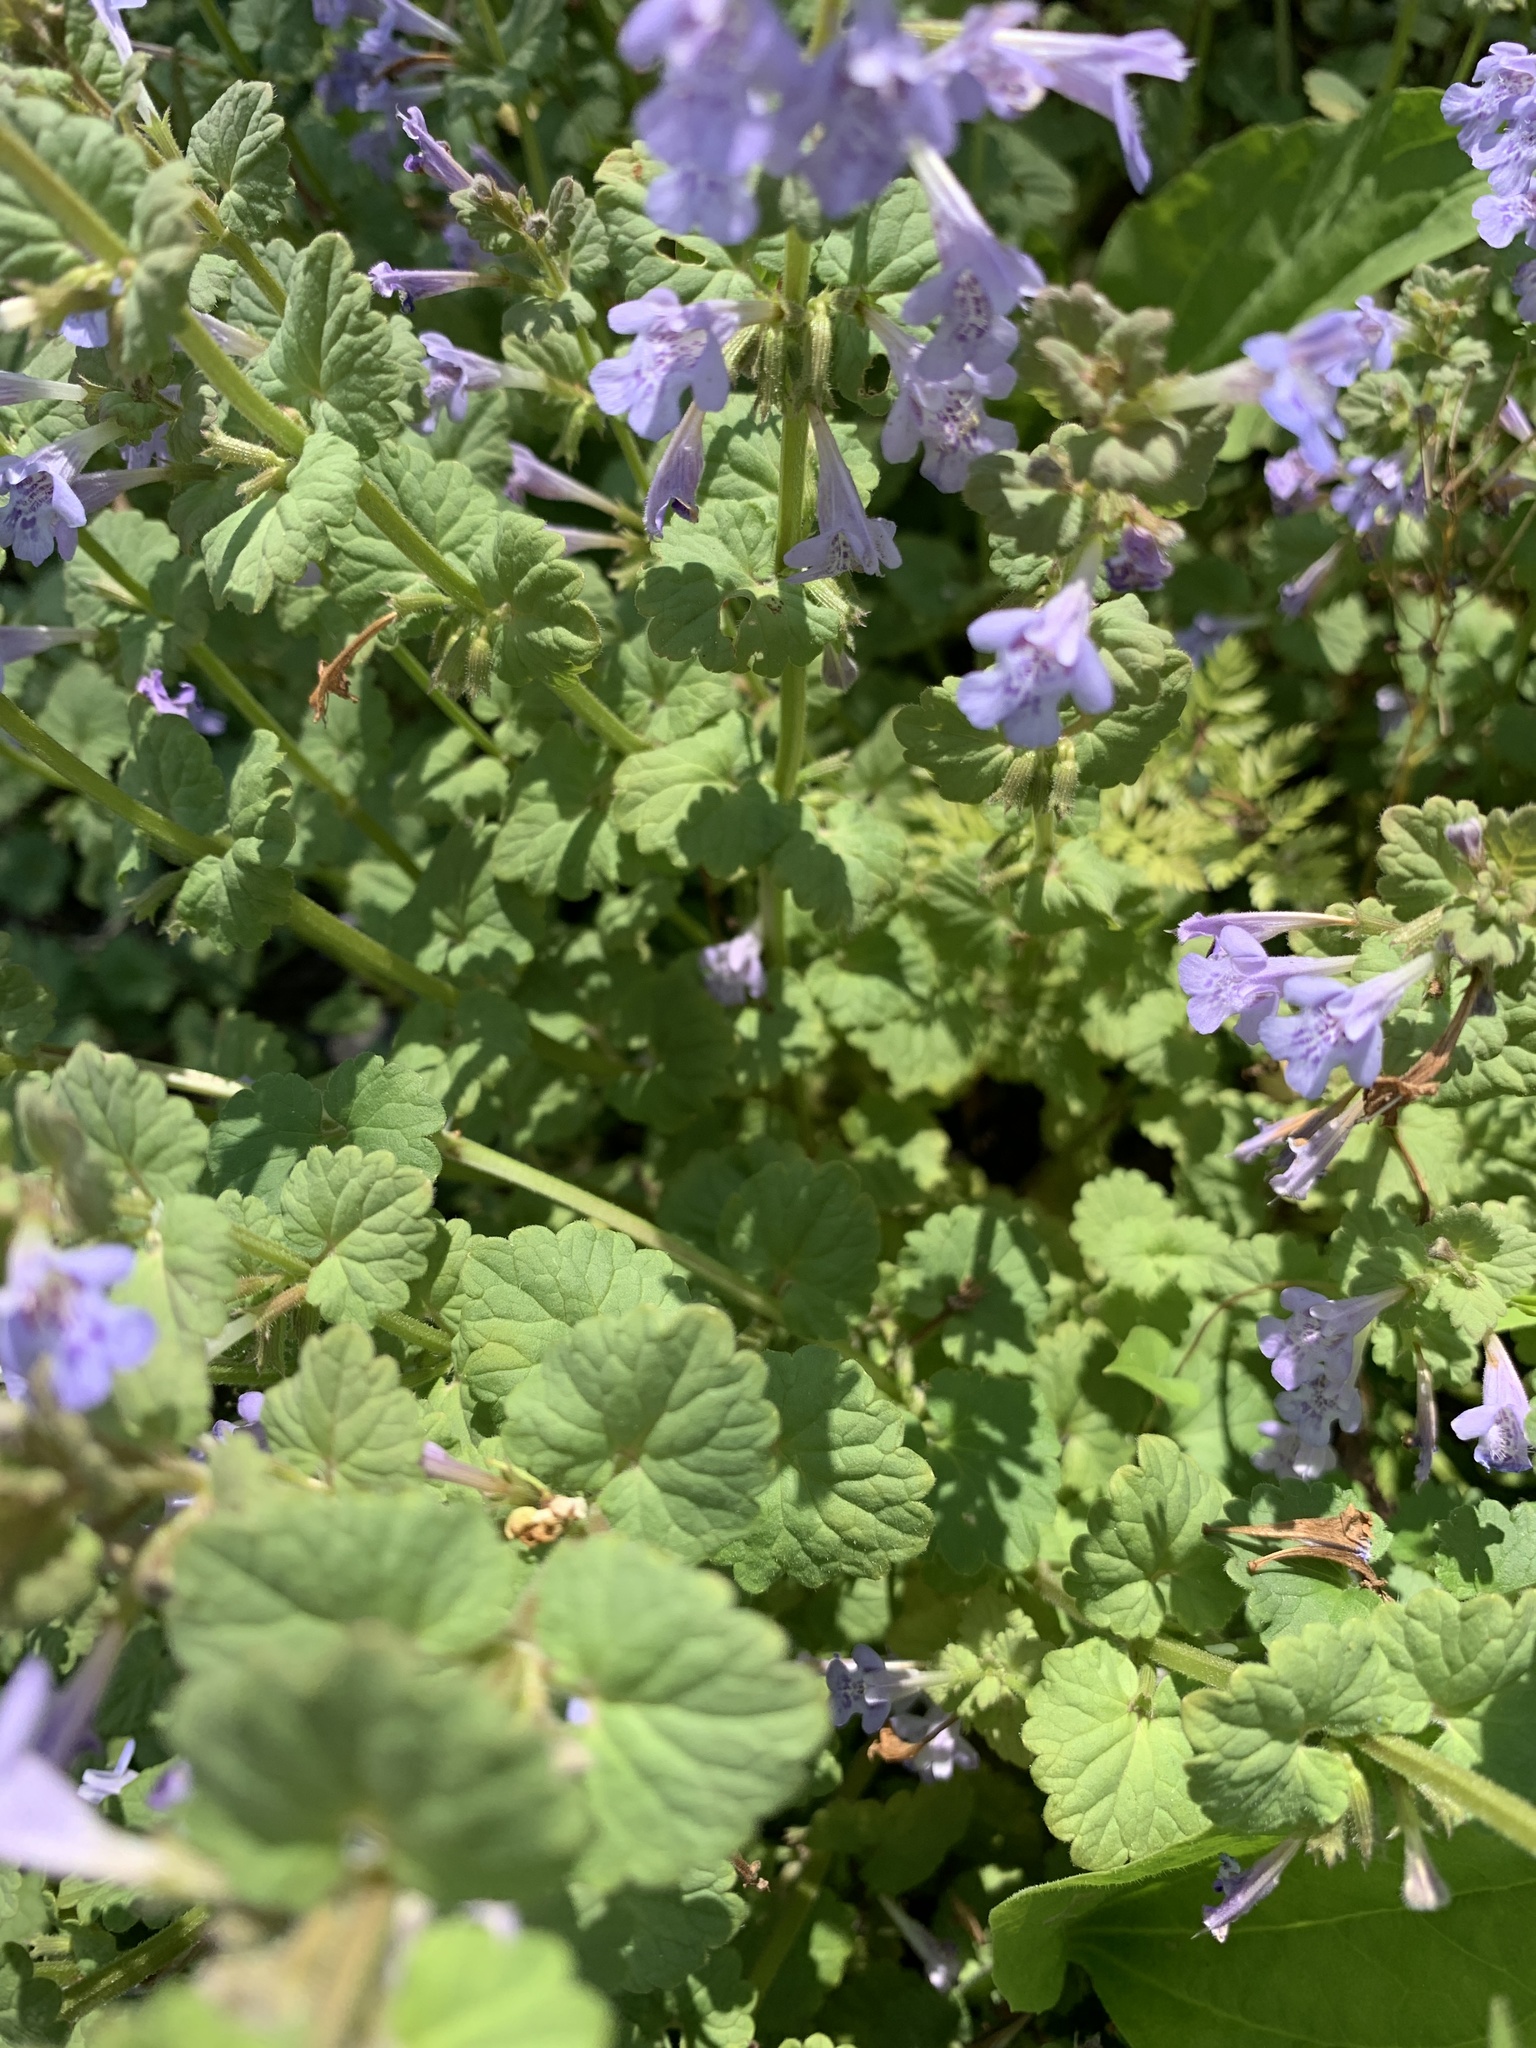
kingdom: Plantae
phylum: Tracheophyta
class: Magnoliopsida
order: Lamiales
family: Lamiaceae
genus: Glechoma
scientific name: Glechoma hederacea
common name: Ground ivy
